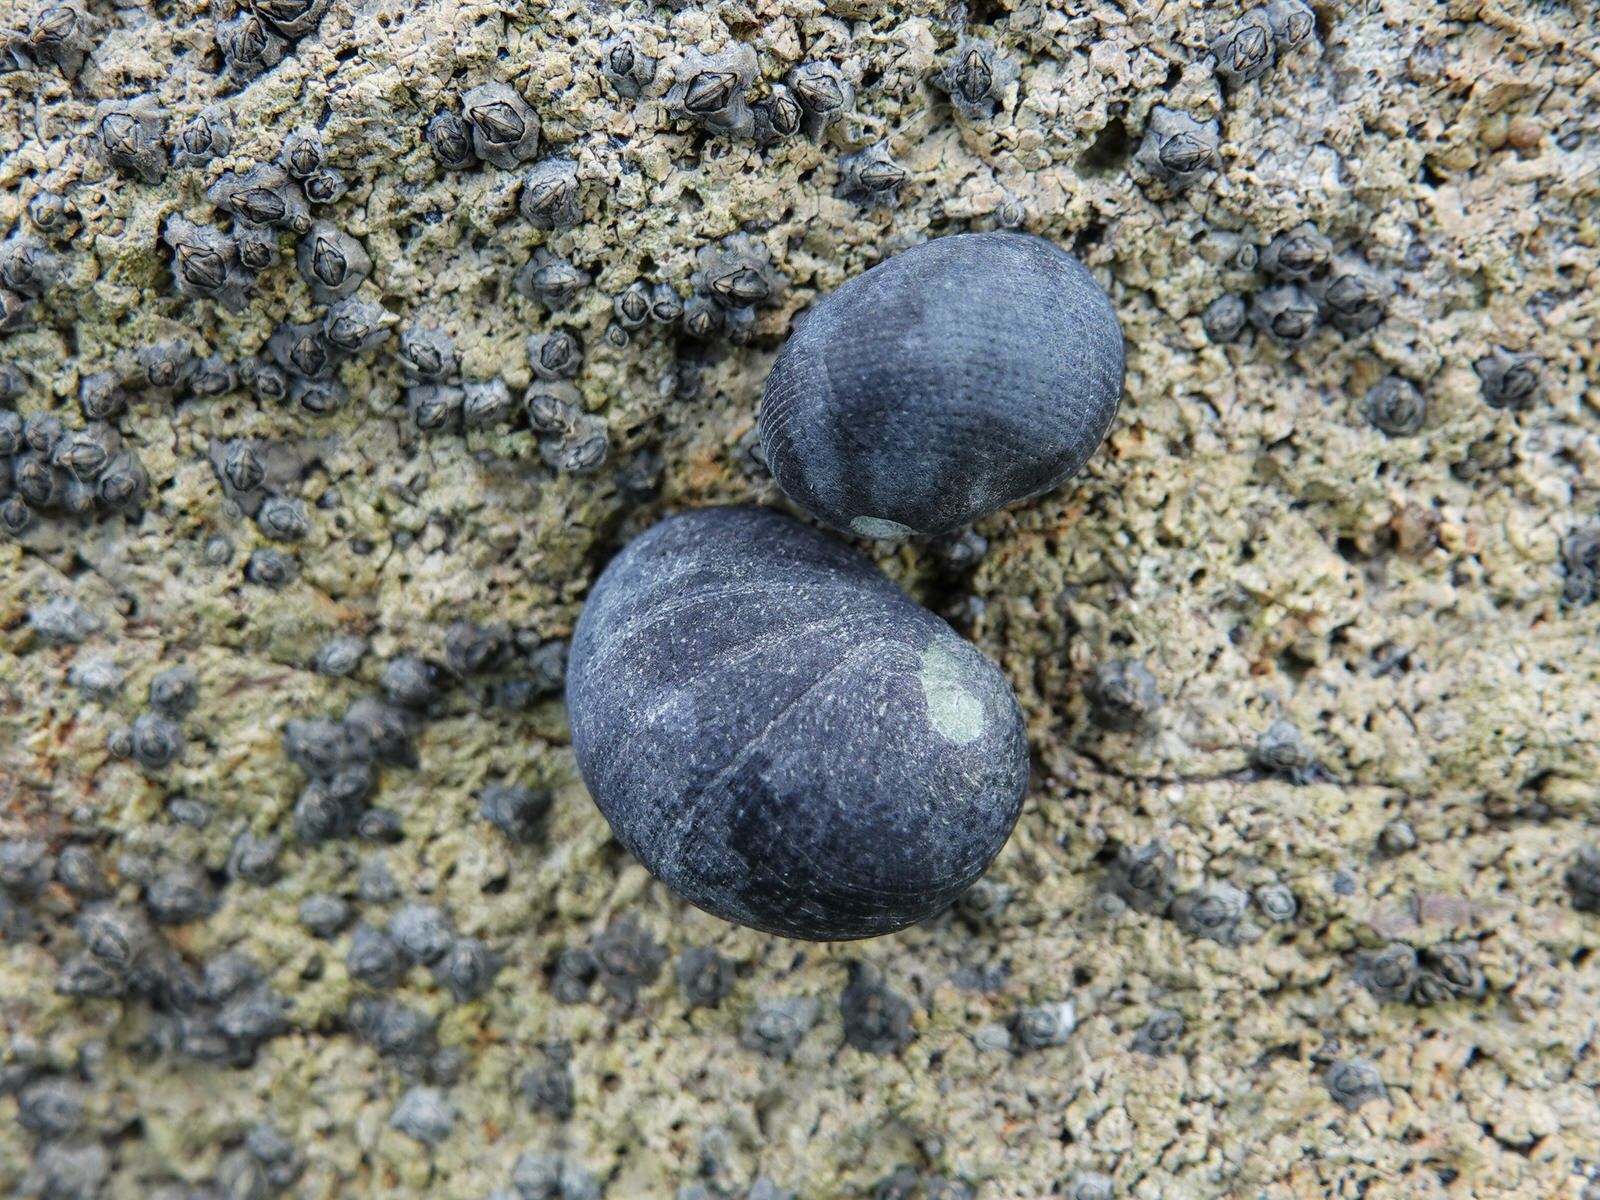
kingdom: Animalia
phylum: Mollusca
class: Gastropoda
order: Cycloneritida
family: Neritidae
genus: Nerita
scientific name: Nerita melanotragus
